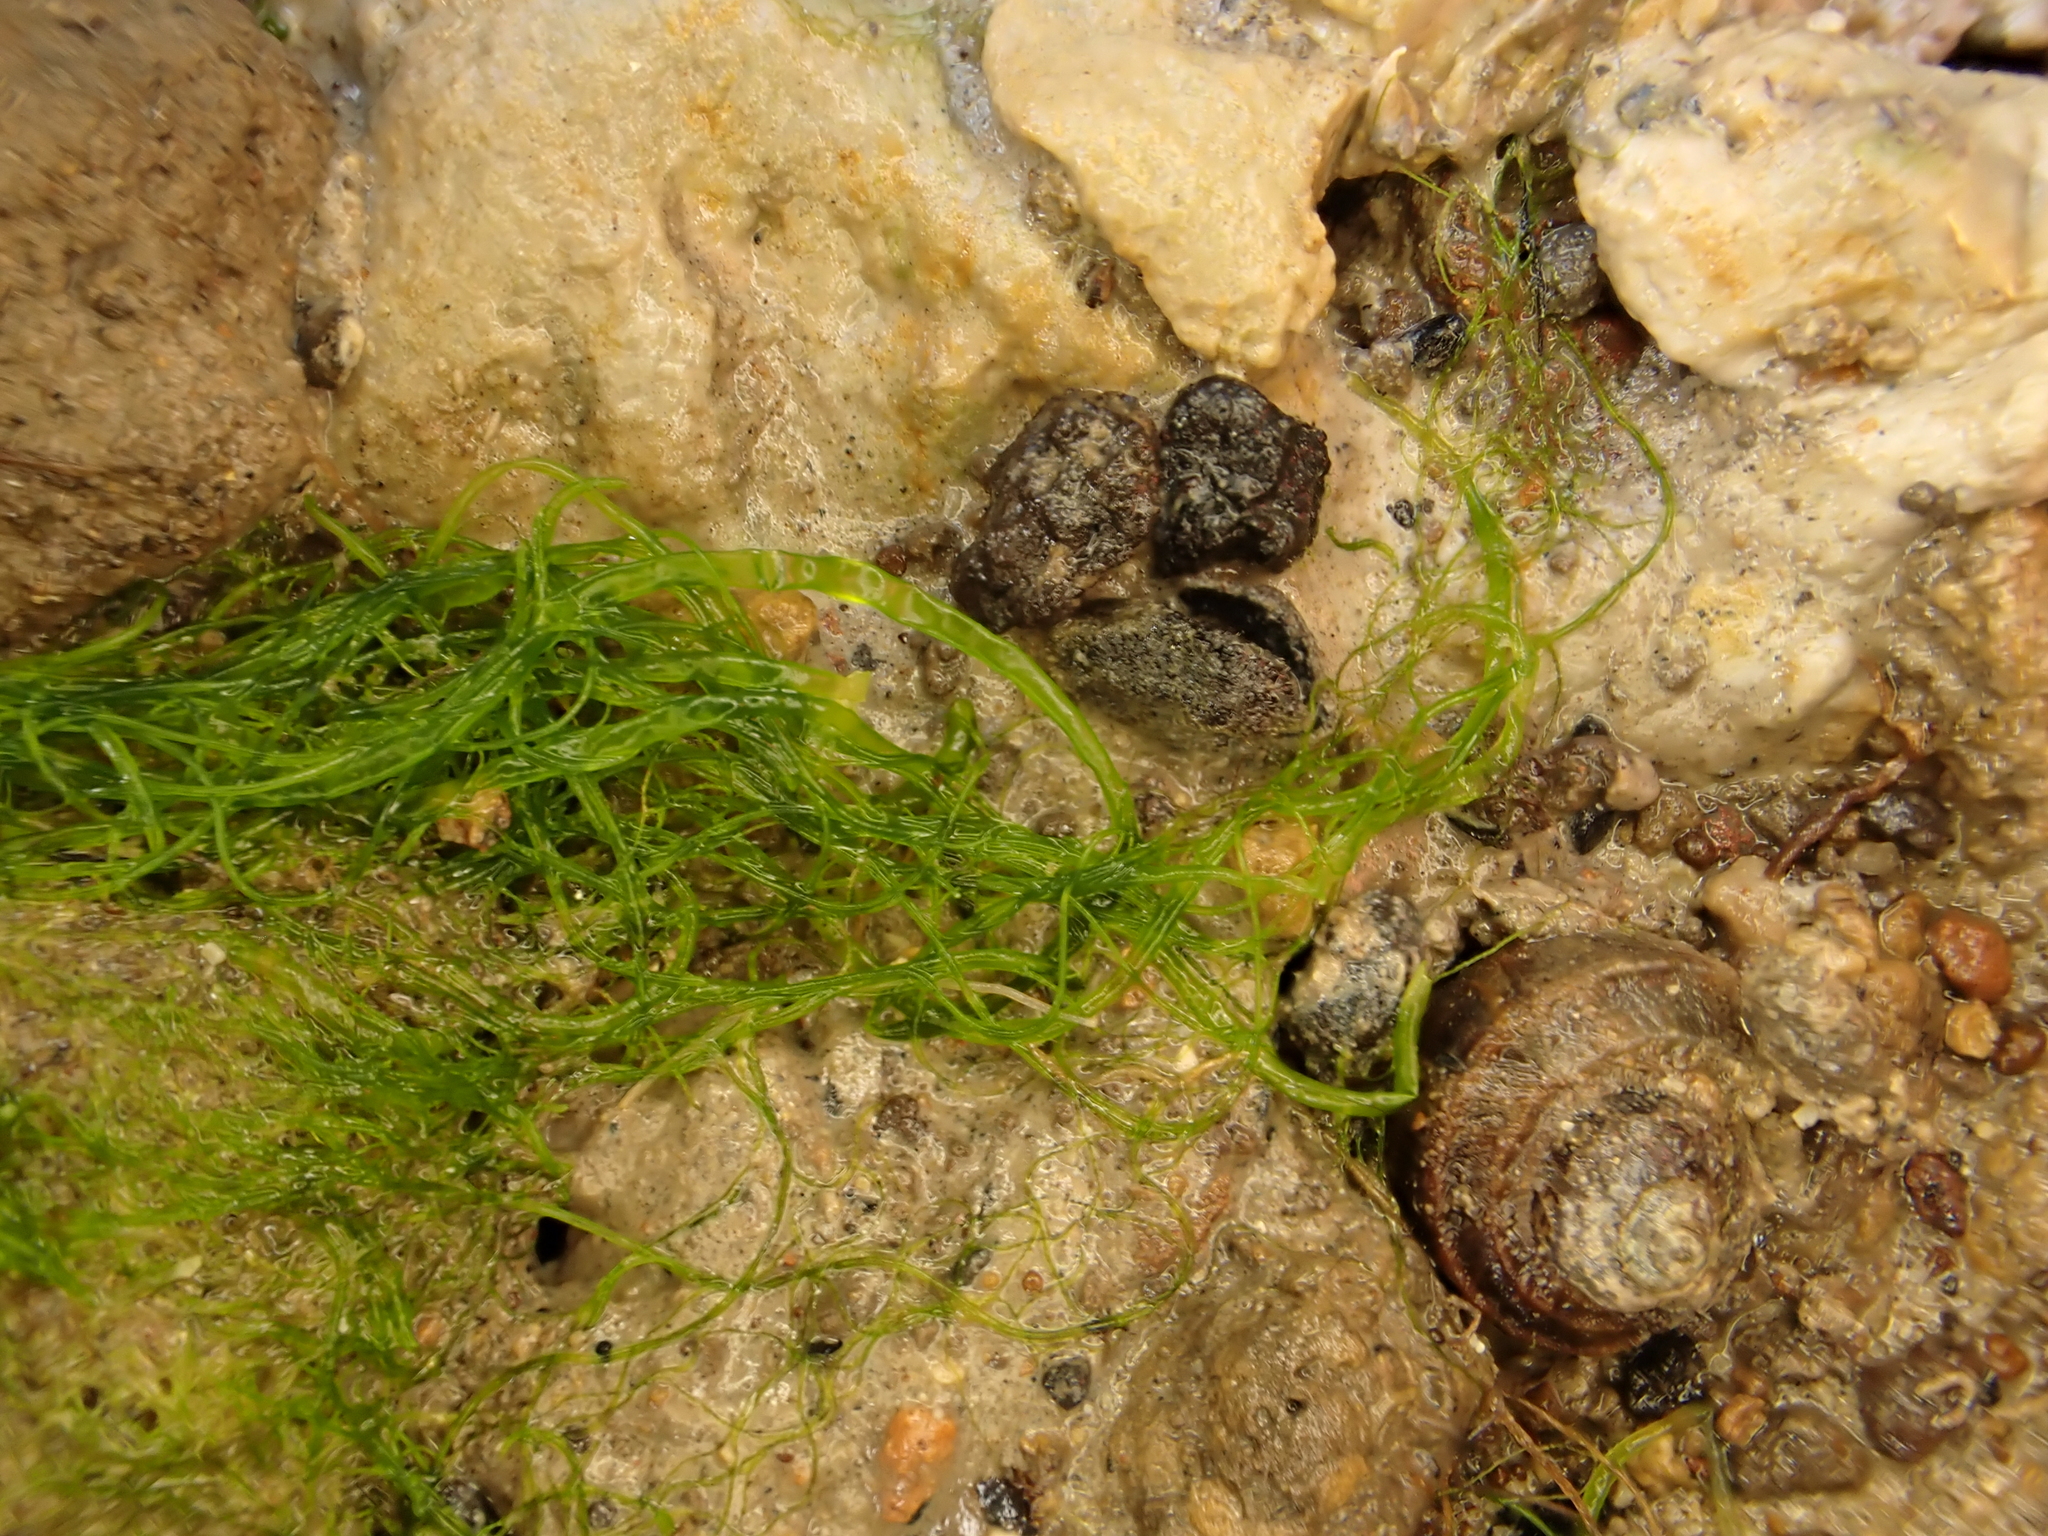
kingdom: Plantae
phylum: Chlorophyta
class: Ulvophyceae
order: Ulvales
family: Ulvaceae
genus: Ulva
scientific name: Ulva intestinalis
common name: Gut weed
